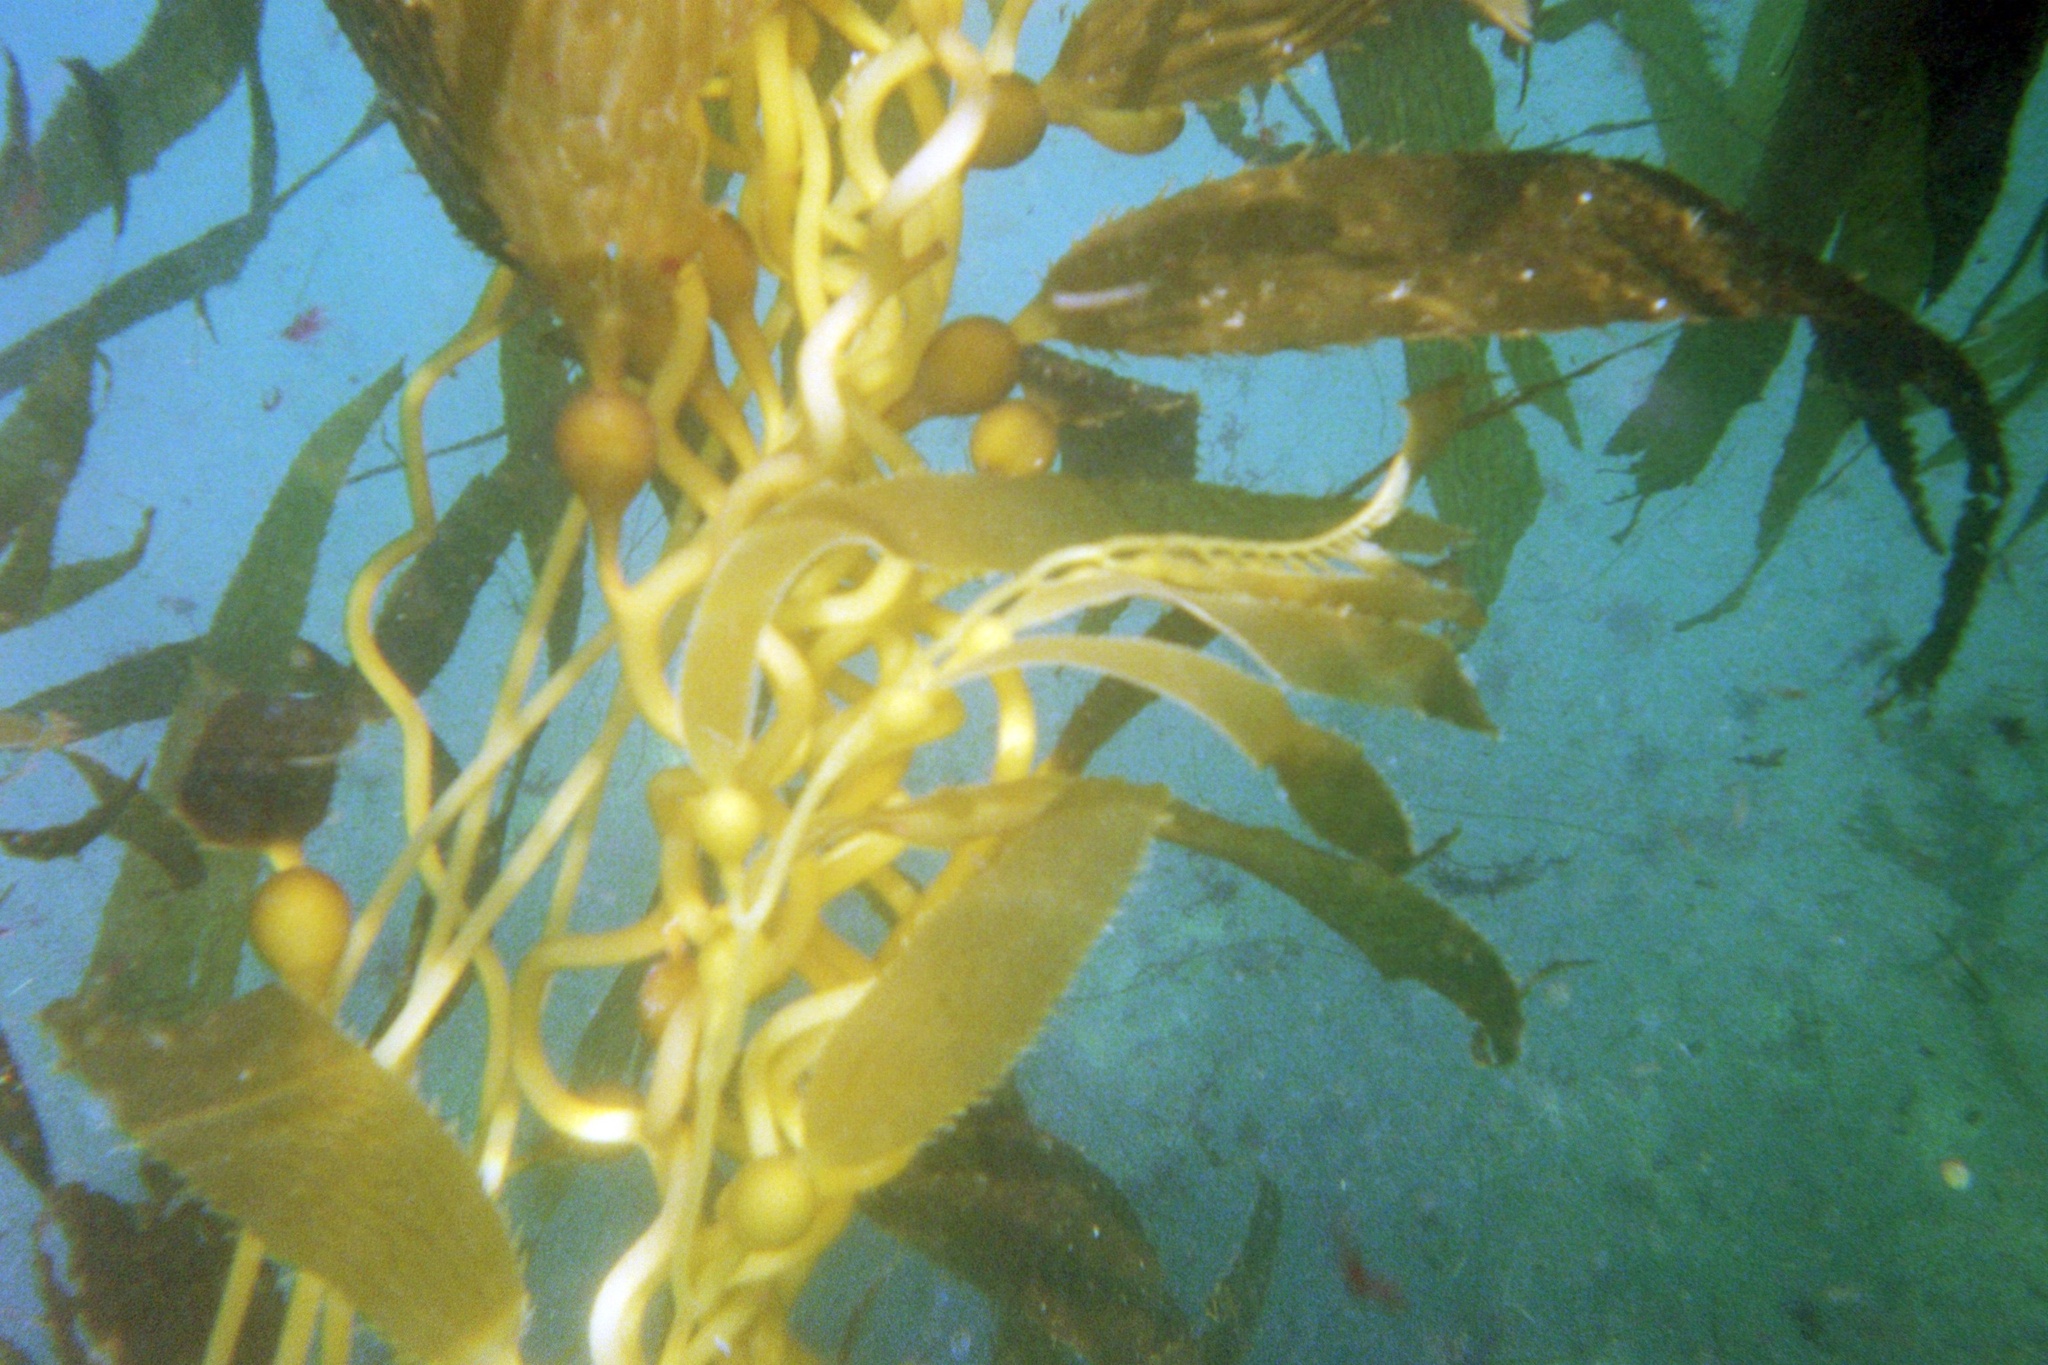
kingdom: Chromista
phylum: Ochrophyta
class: Phaeophyceae
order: Laminariales
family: Laminariaceae
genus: Macrocystis
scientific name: Macrocystis pyrifera
